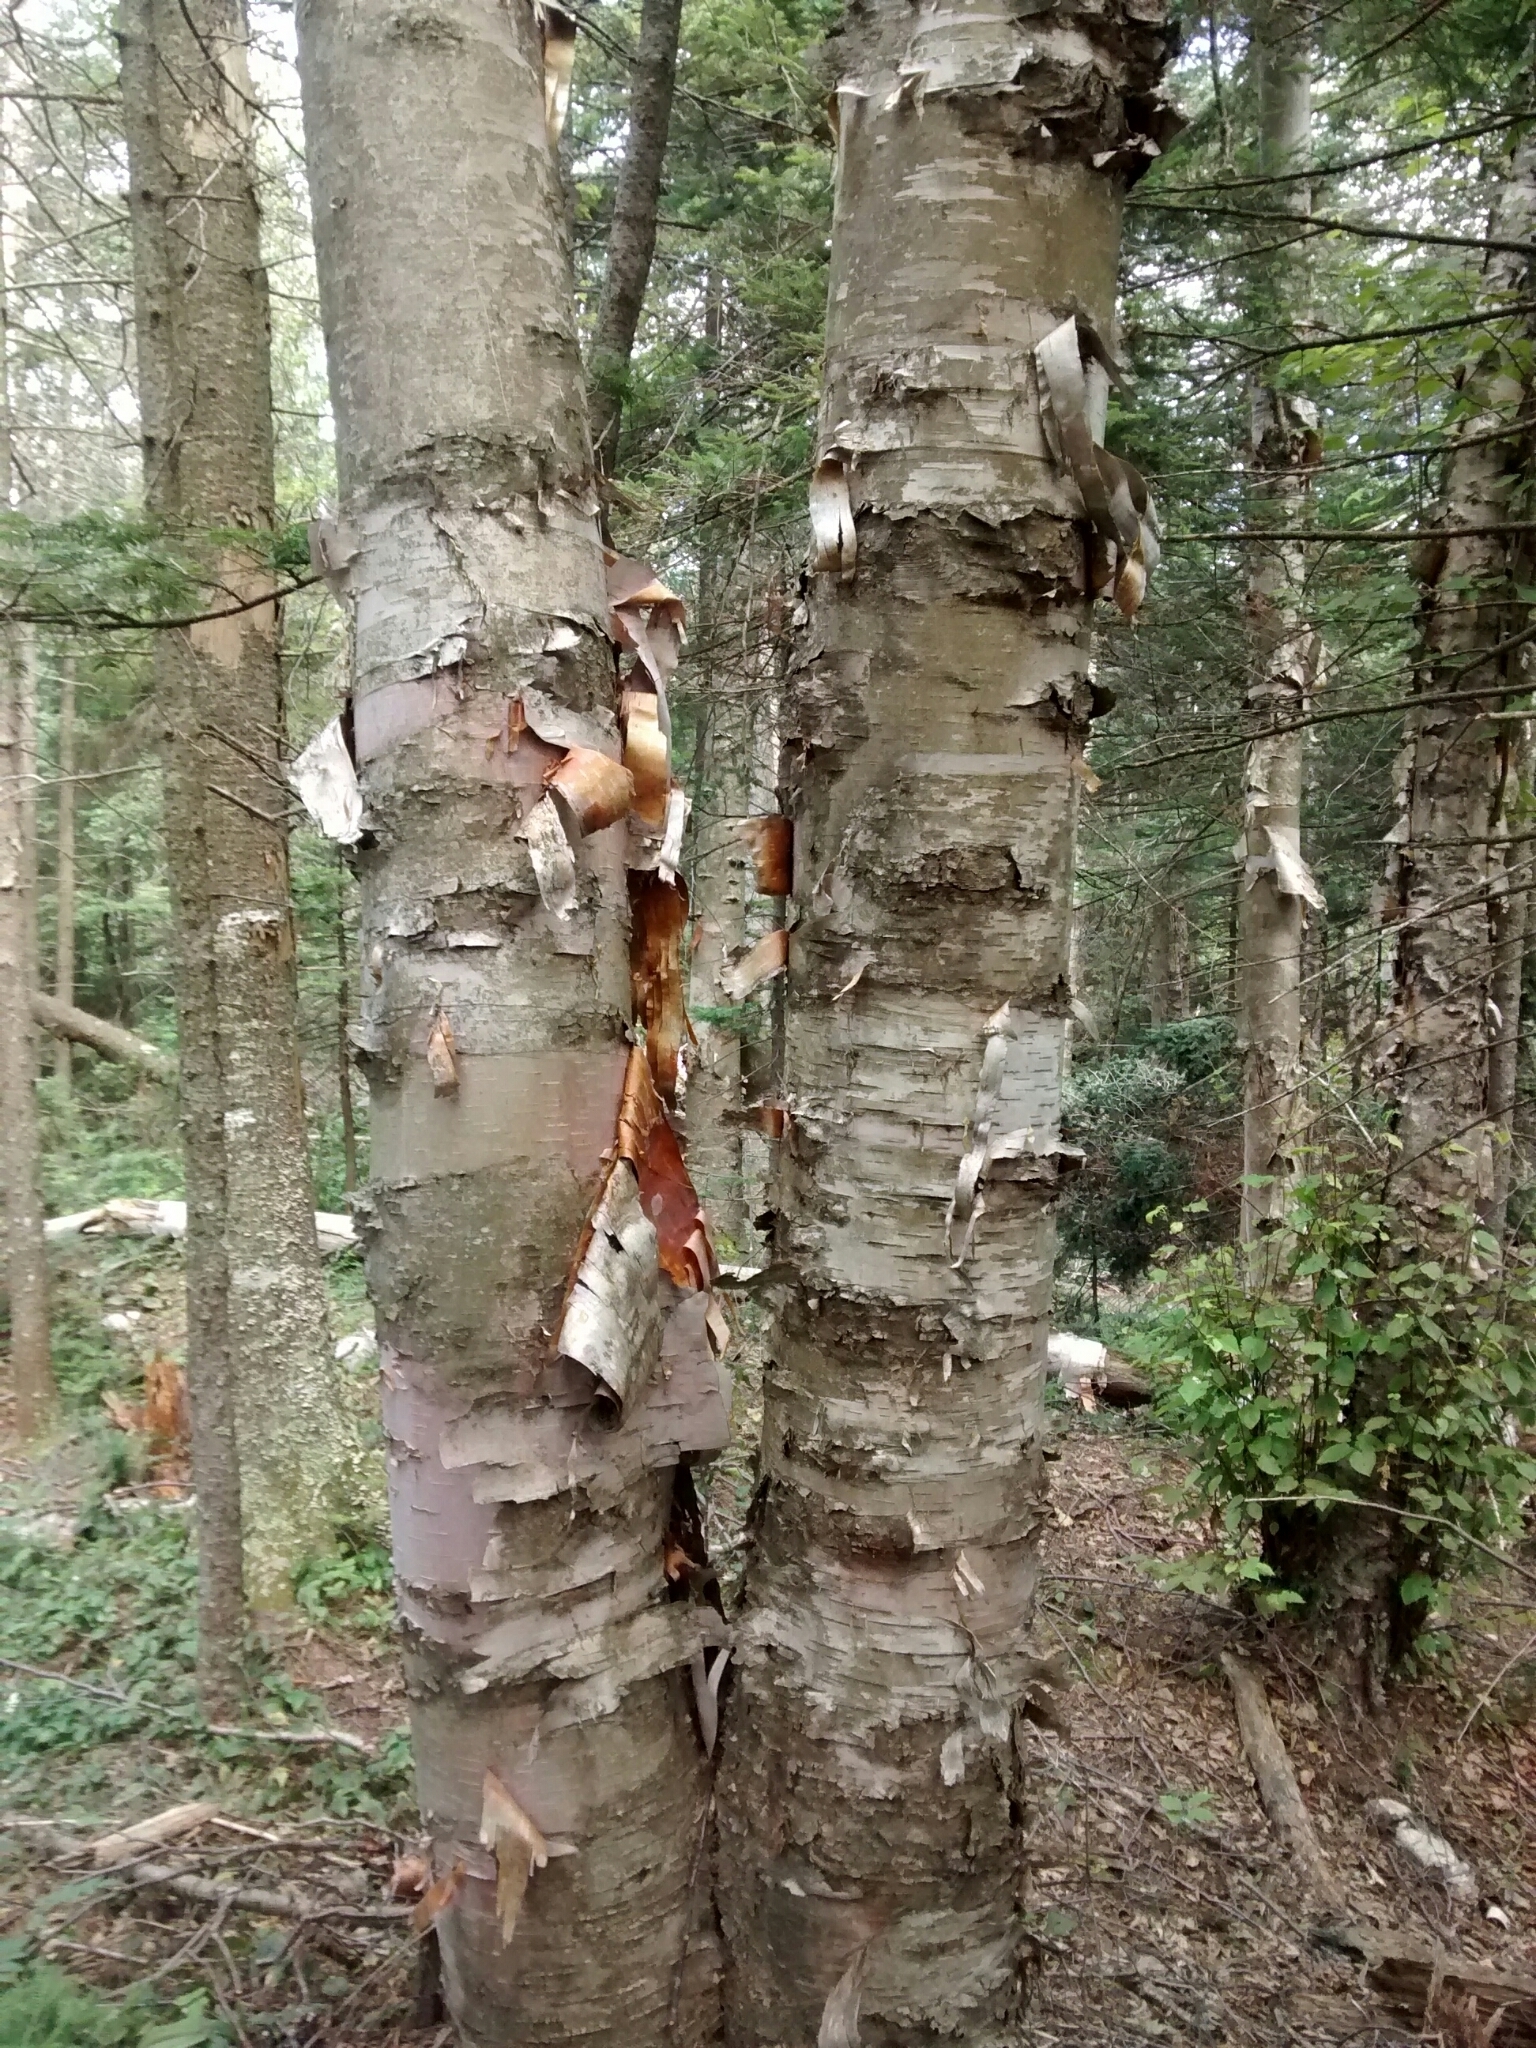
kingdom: Plantae
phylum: Tracheophyta
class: Magnoliopsida
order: Fagales
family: Betulaceae
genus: Betula
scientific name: Betula papyrifera
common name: Paper birch
